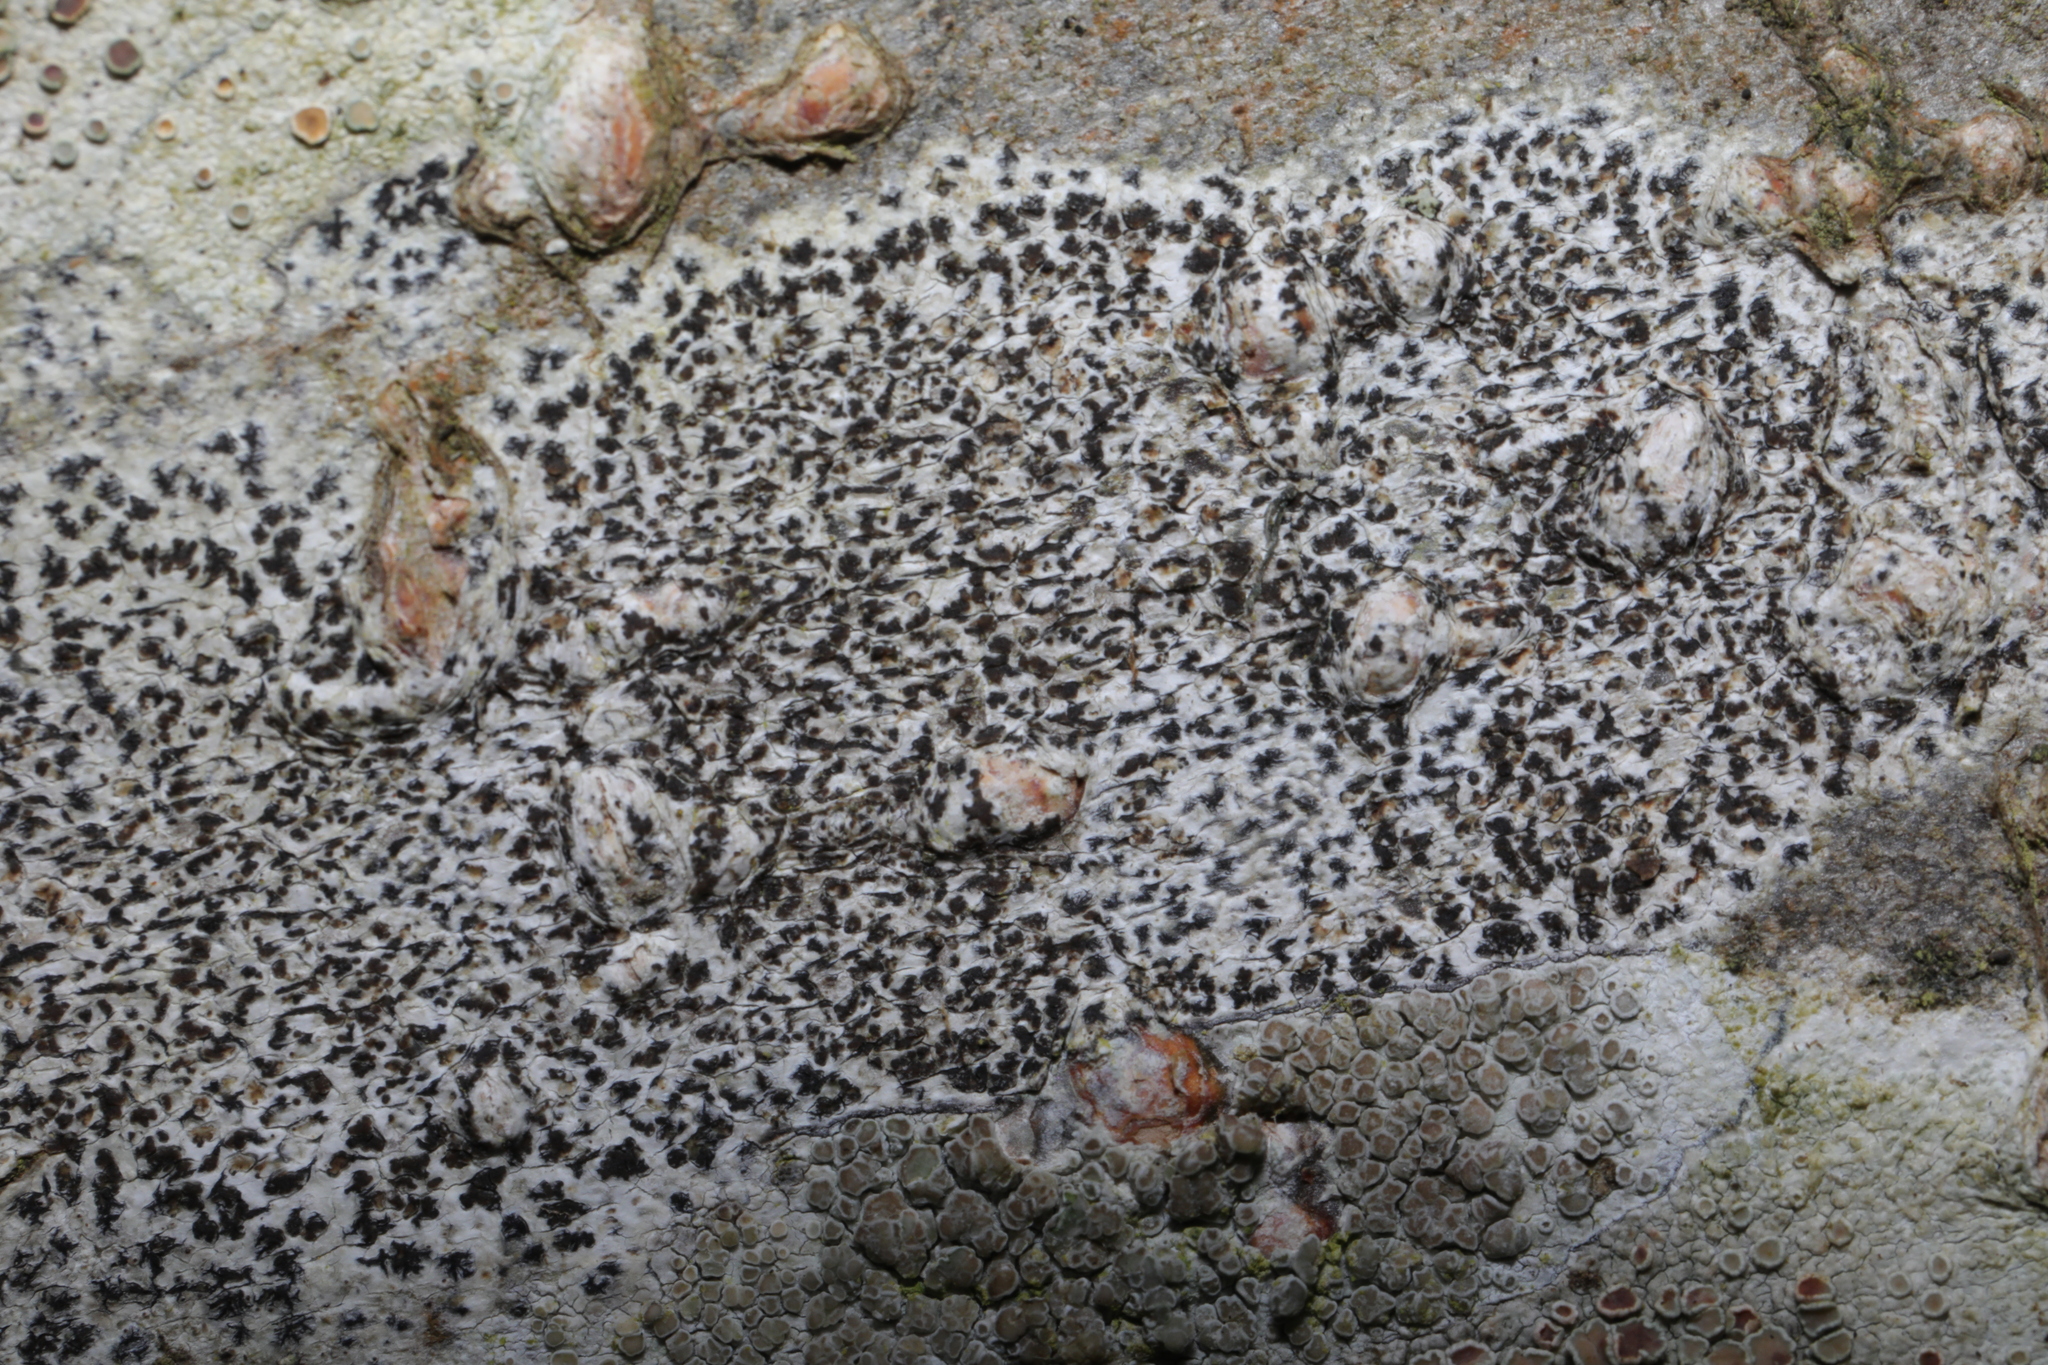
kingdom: Fungi
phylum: Ascomycota
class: Arthoniomycetes
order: Arthoniales
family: Arthoniaceae
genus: Arthonia
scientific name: Arthonia radiata
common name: Asterisk lichen
